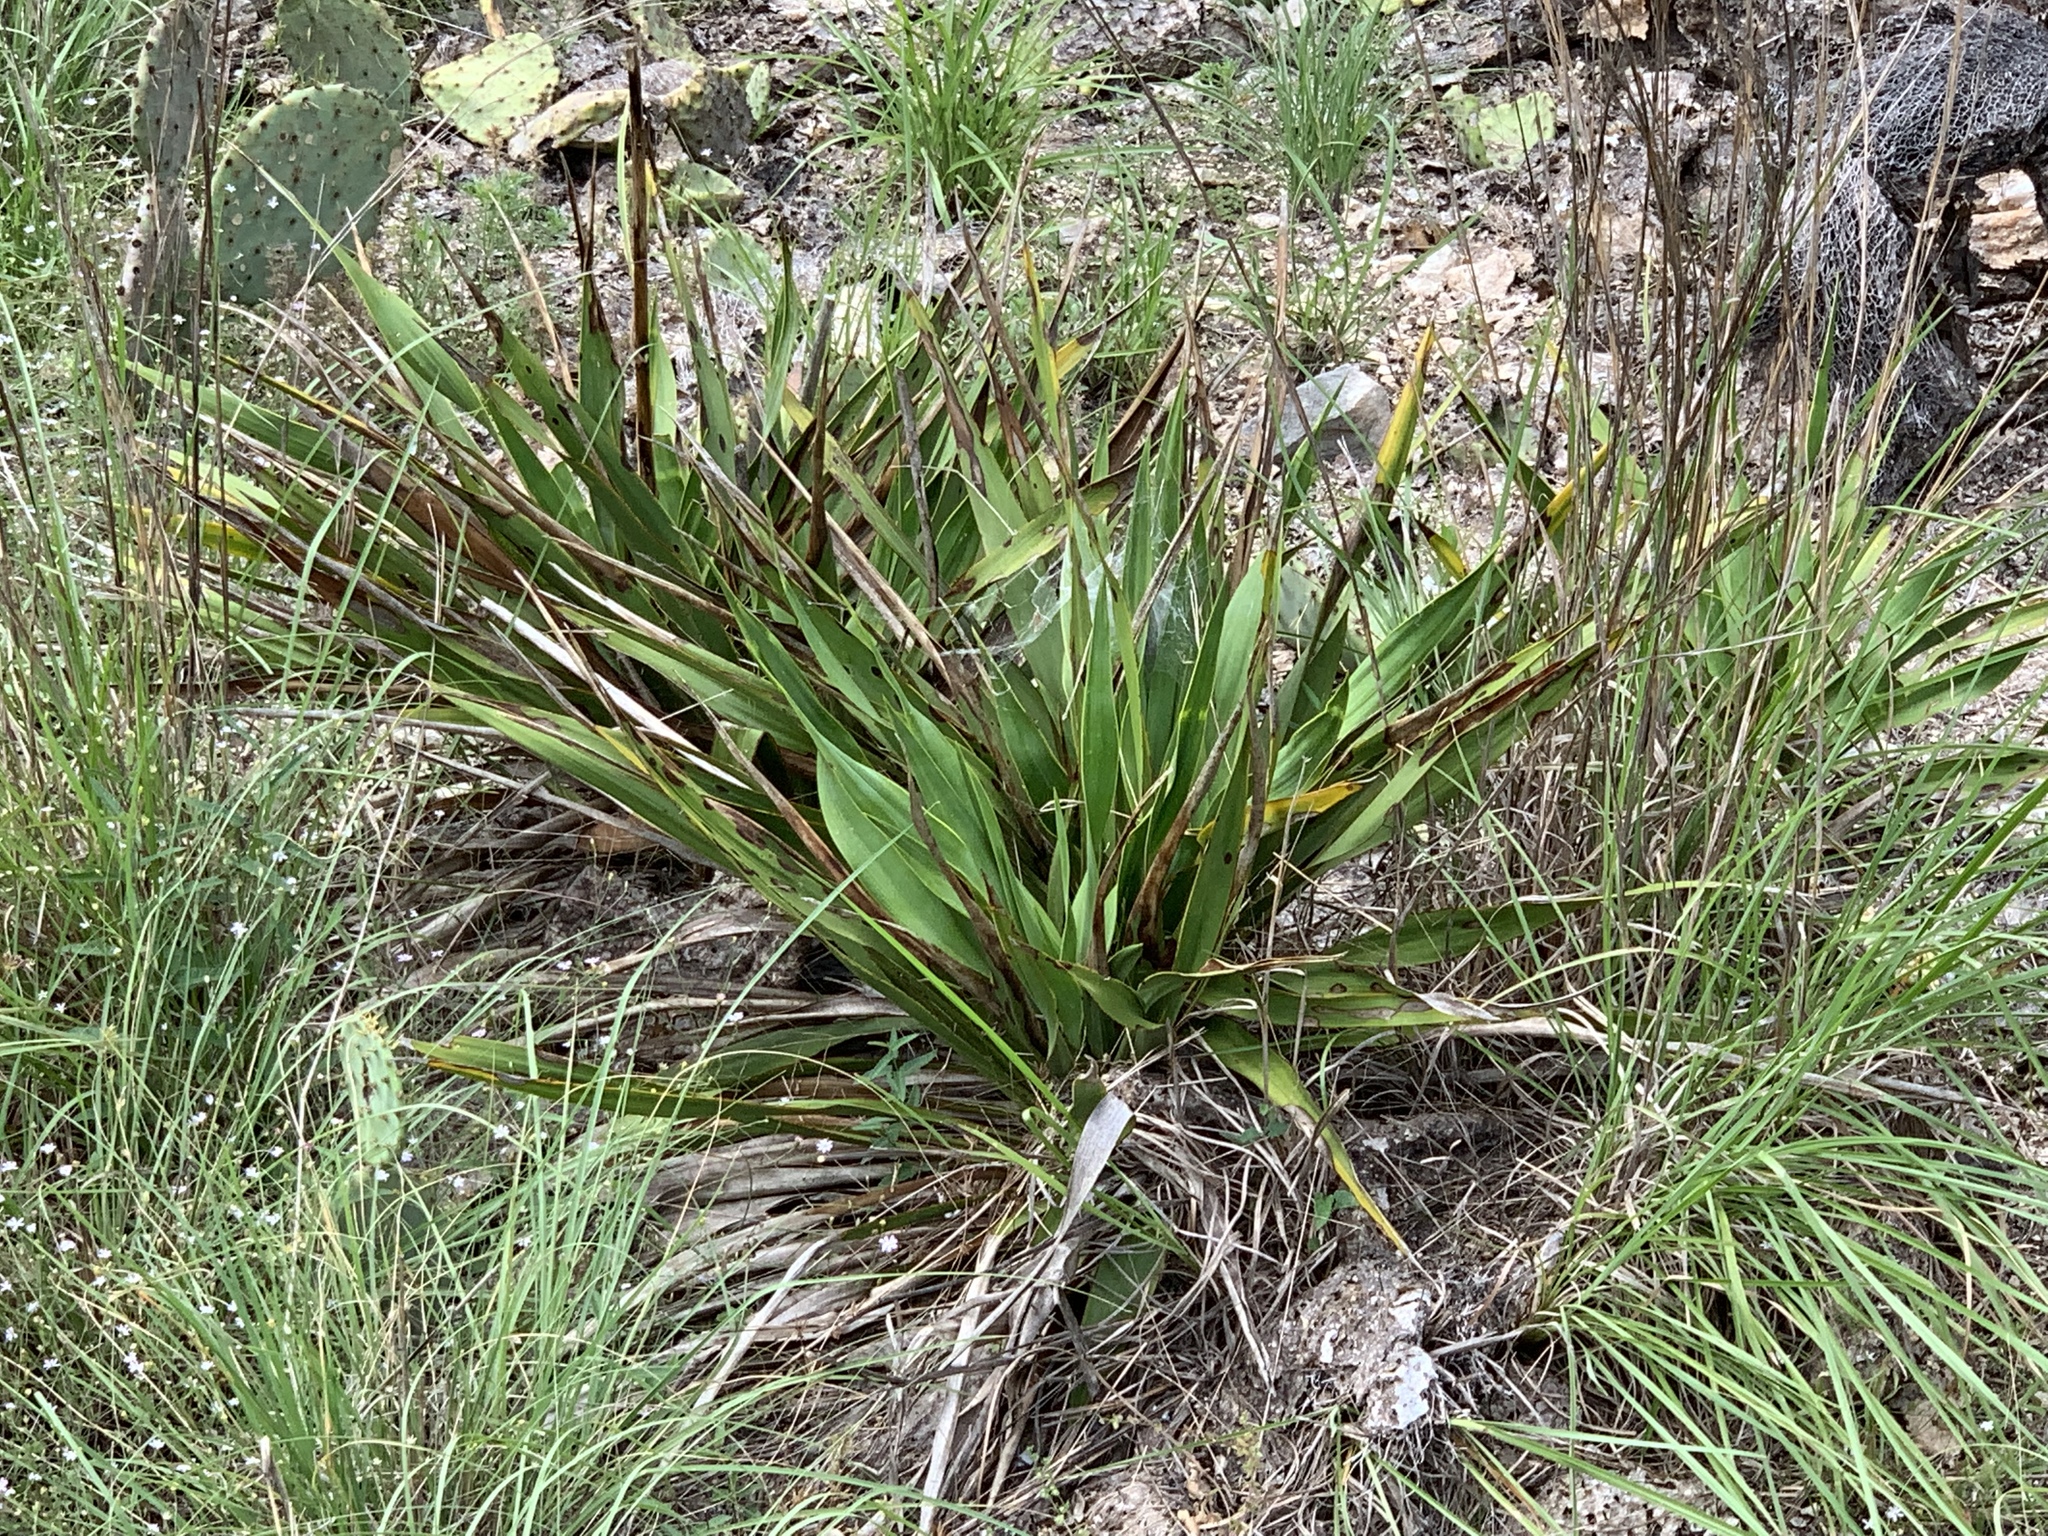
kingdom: Plantae
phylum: Tracheophyta
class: Liliopsida
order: Asparagales
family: Asparagaceae
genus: Yucca
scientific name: Yucca rupicola
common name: Twisted-leaf spanish-dagger
